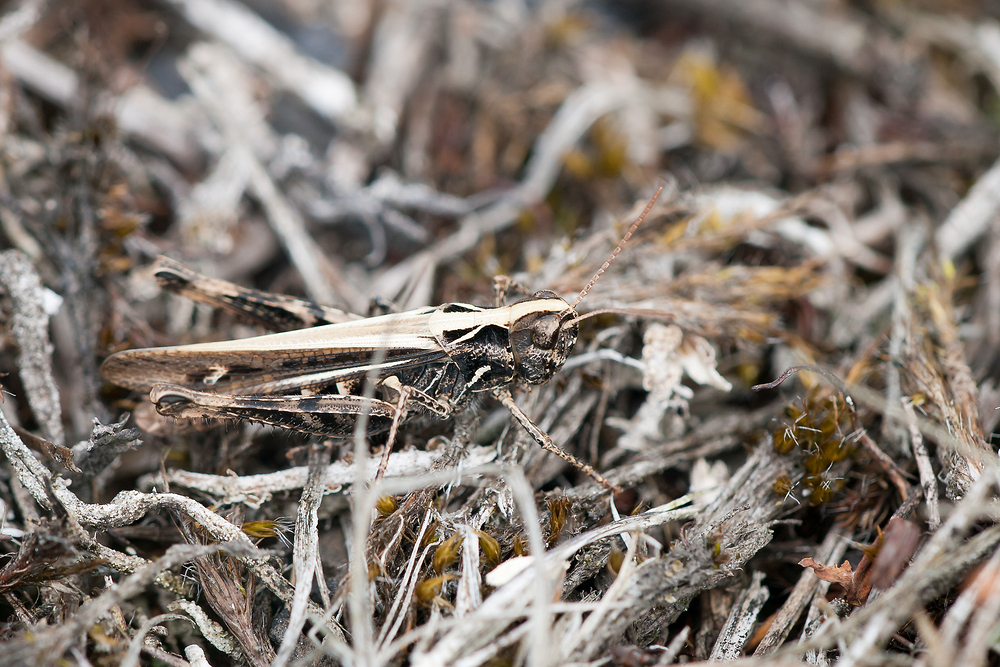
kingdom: Animalia
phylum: Arthropoda
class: Insecta
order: Orthoptera
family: Acrididae
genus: Myrmeleotettix
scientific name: Myrmeleotettix maculatus
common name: Mottled grasshopper
